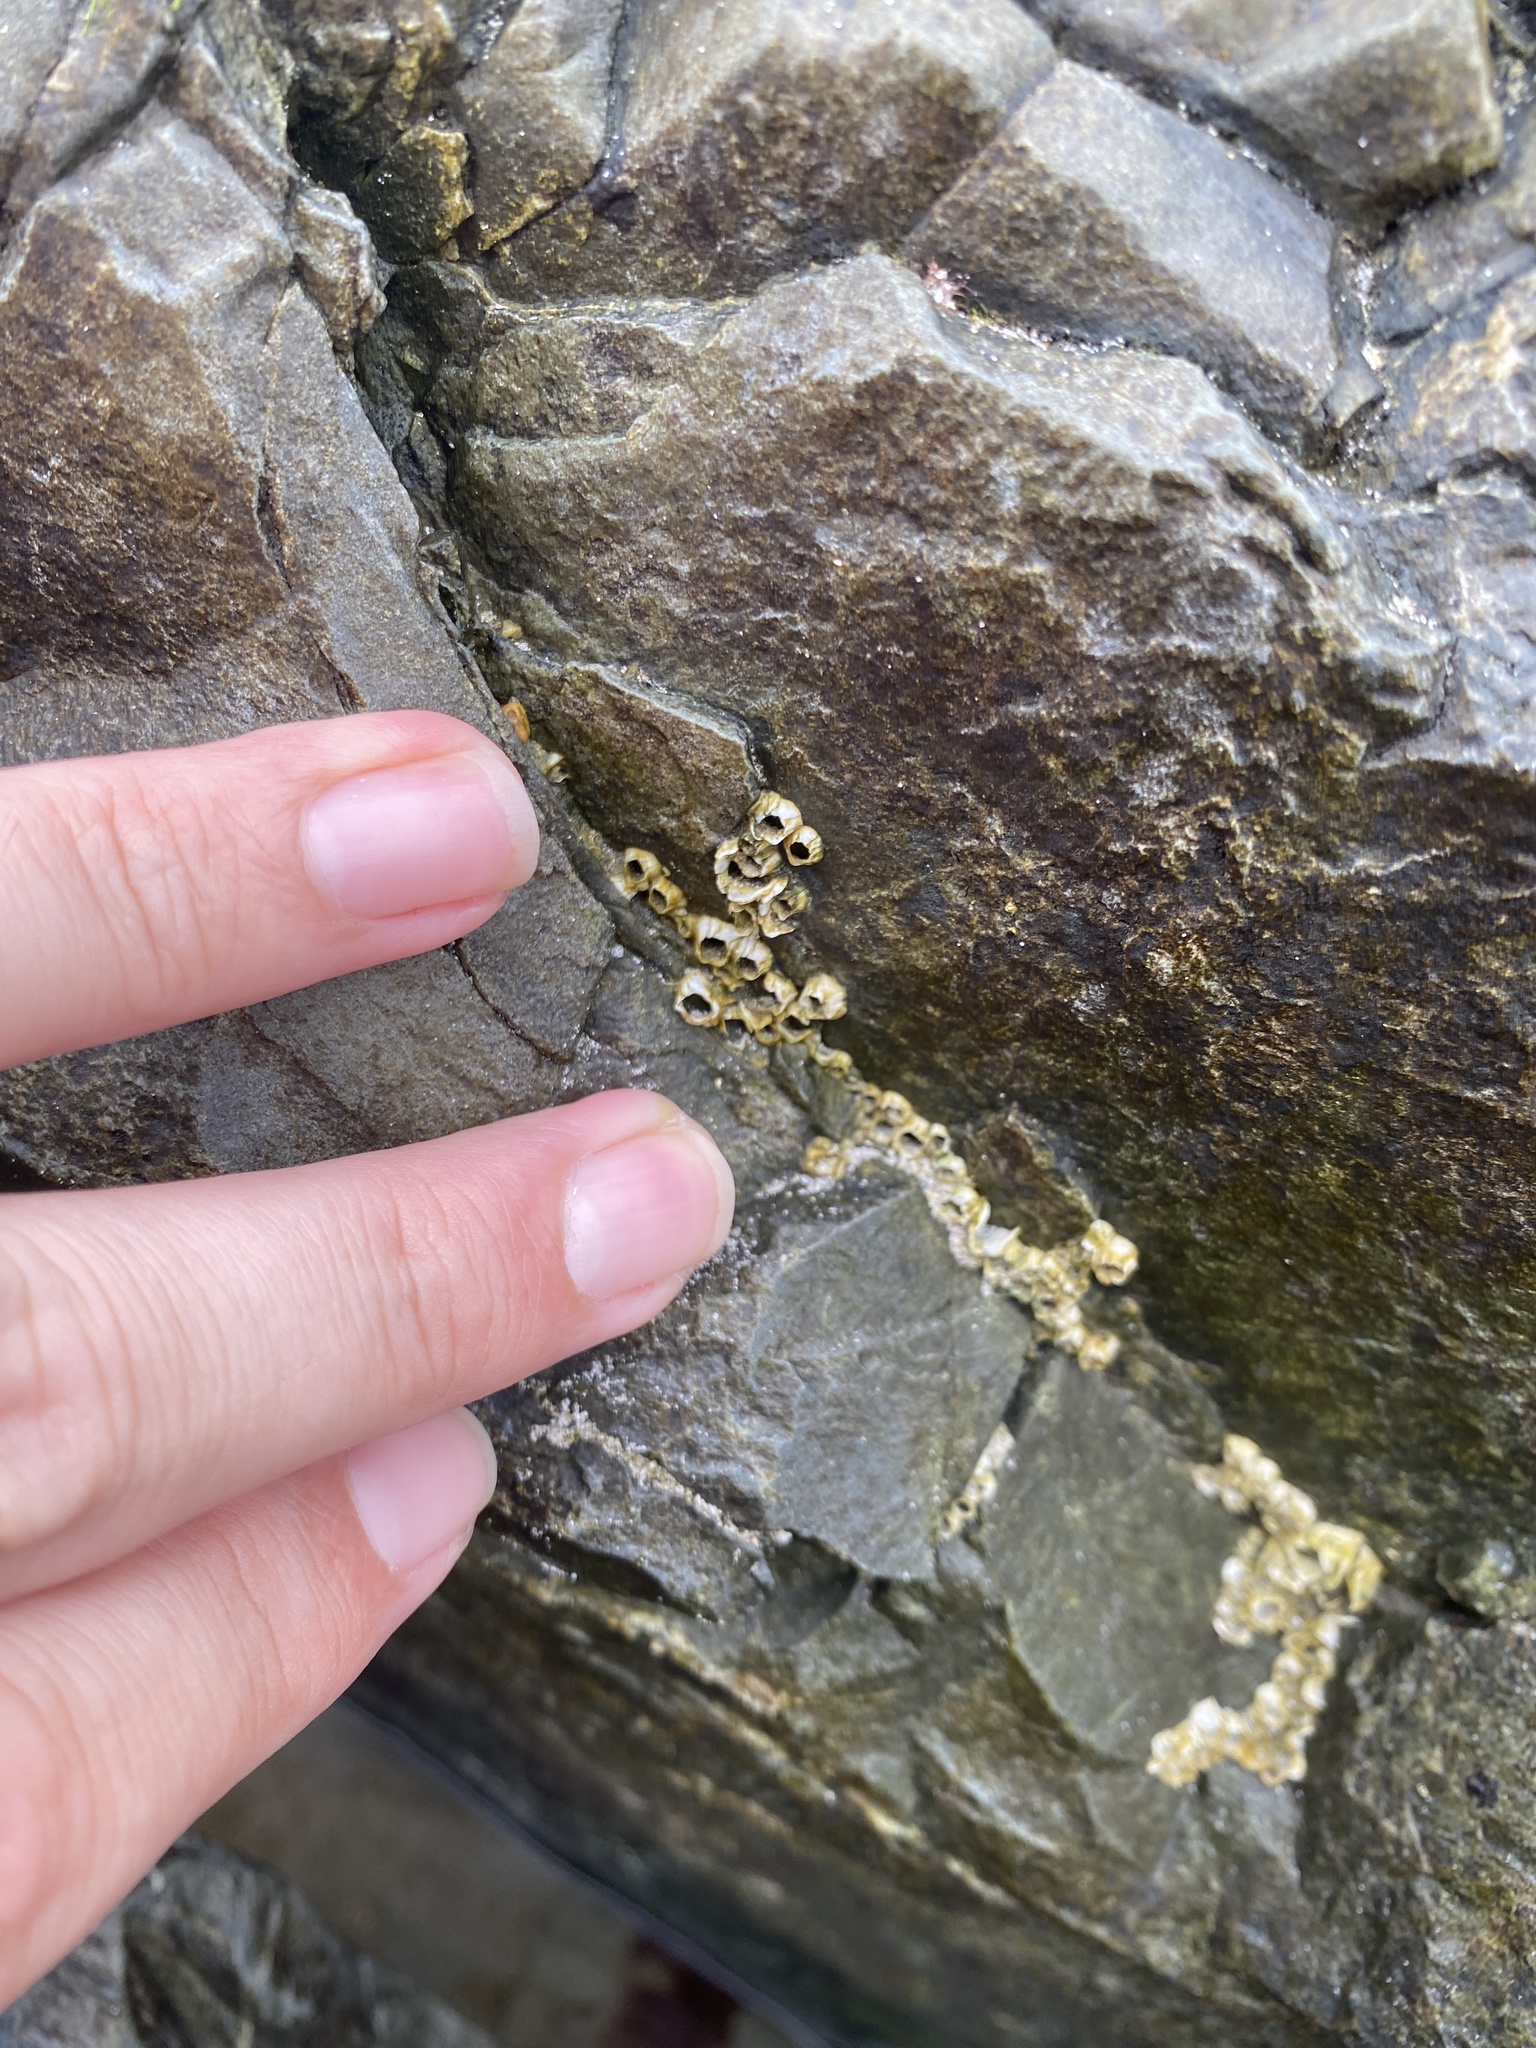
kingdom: Animalia
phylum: Arthropoda
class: Maxillopoda
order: Sessilia
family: Archaeobalanidae
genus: Semibalanus
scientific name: Semibalanus balanoides
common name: Acorn barnacle
